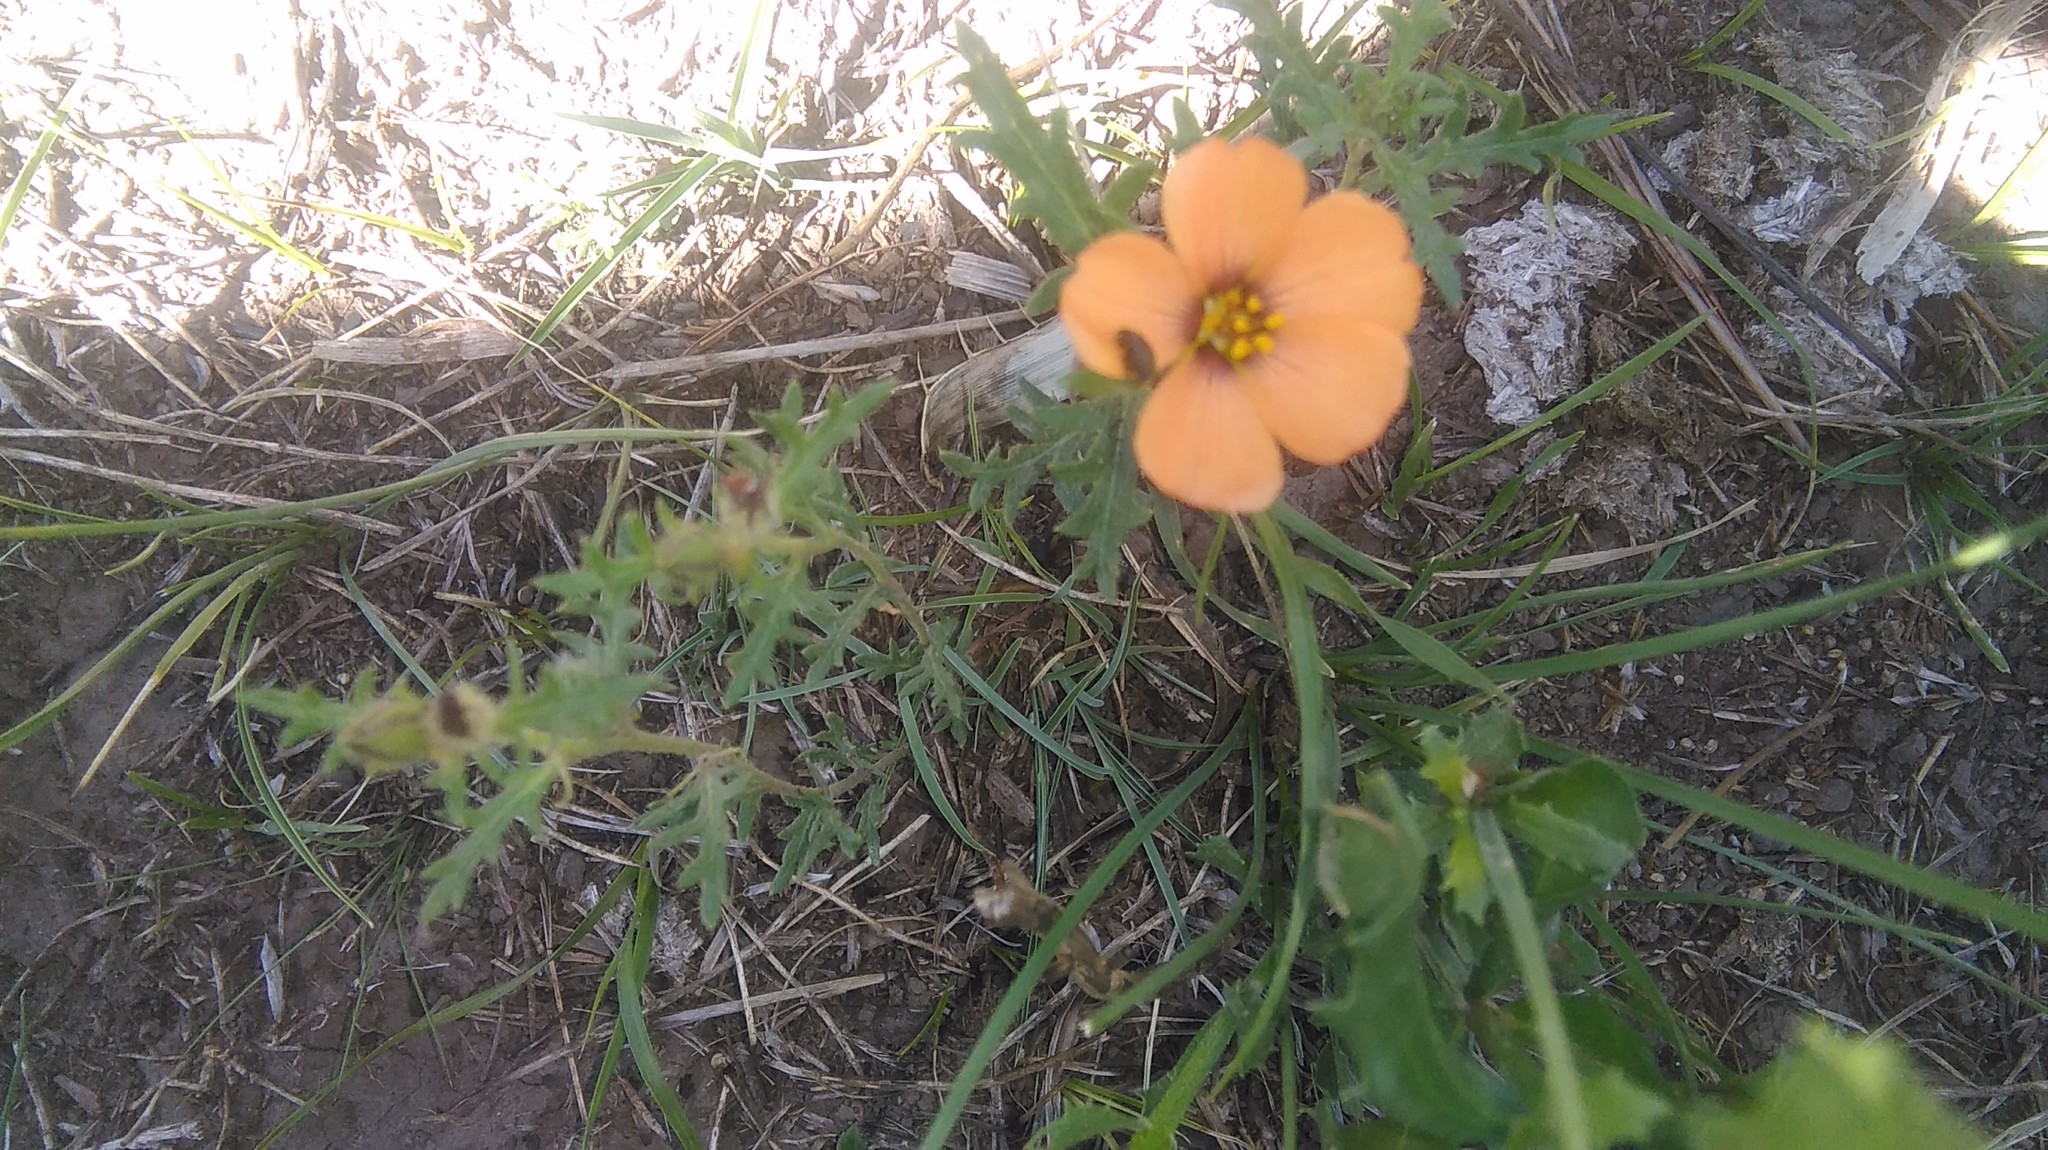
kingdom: Plantae
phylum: Tracheophyta
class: Magnoliopsida
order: Malpighiales
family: Turneraceae
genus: Turnera
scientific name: Turnera sidoides
